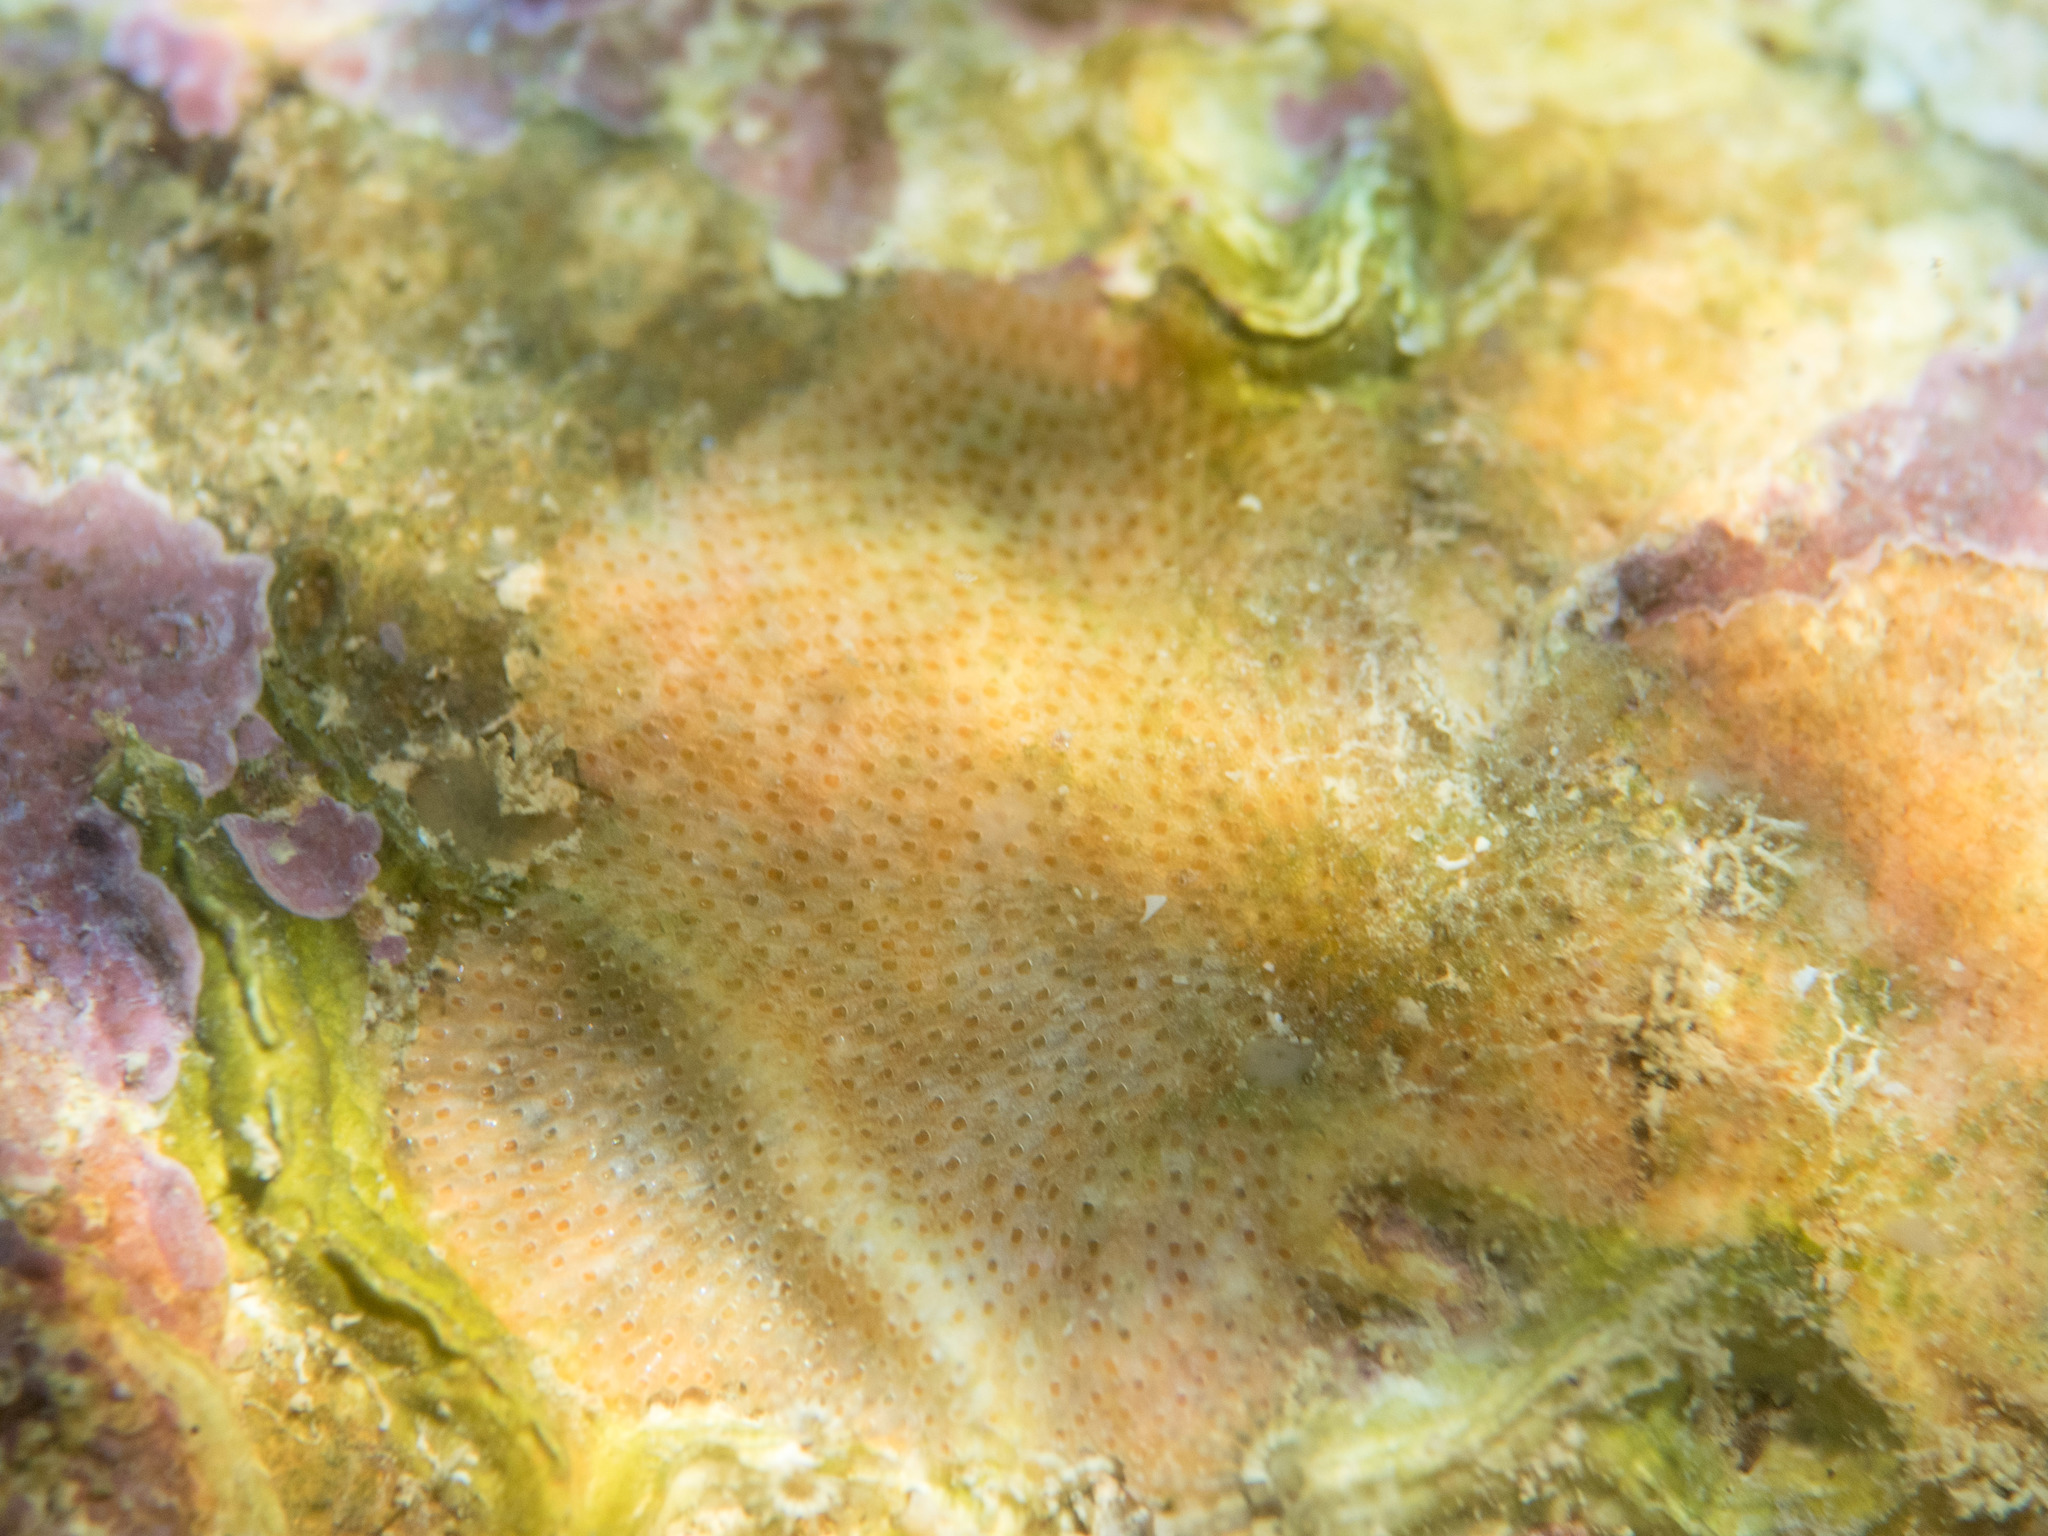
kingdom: Animalia
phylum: Bryozoa
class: Gymnolaemata
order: Cheilostomatida
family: Cryptosulidae
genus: Cryptosula
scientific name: Cryptosula pallasiana
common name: Red crust
